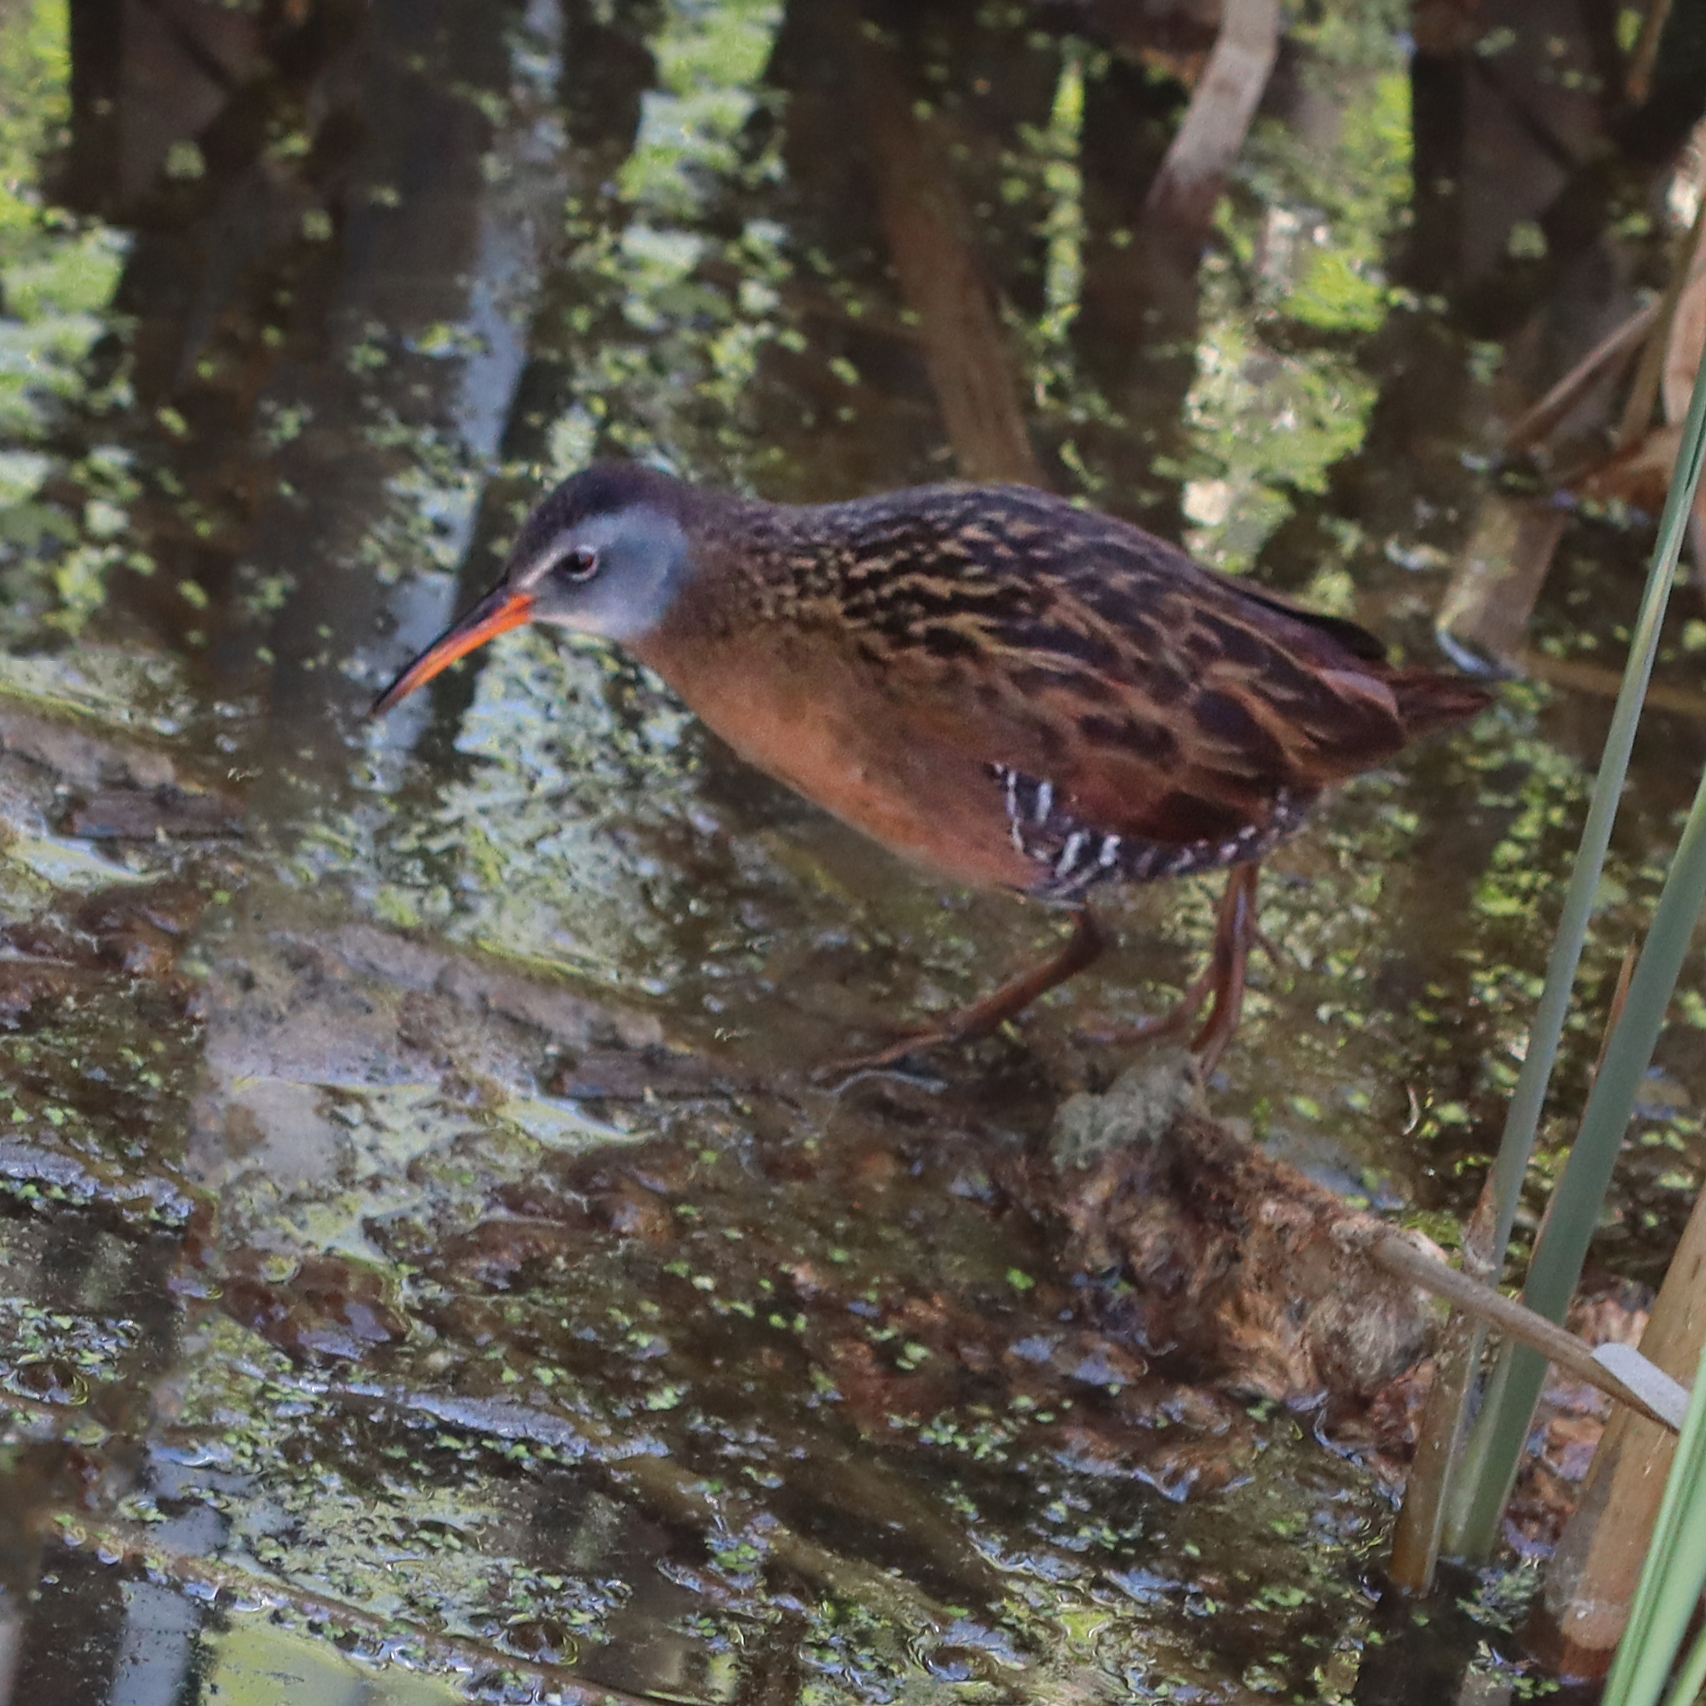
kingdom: Animalia
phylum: Chordata
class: Aves
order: Gruiformes
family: Rallidae
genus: Rallus
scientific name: Rallus limicola
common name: Virginia rail
